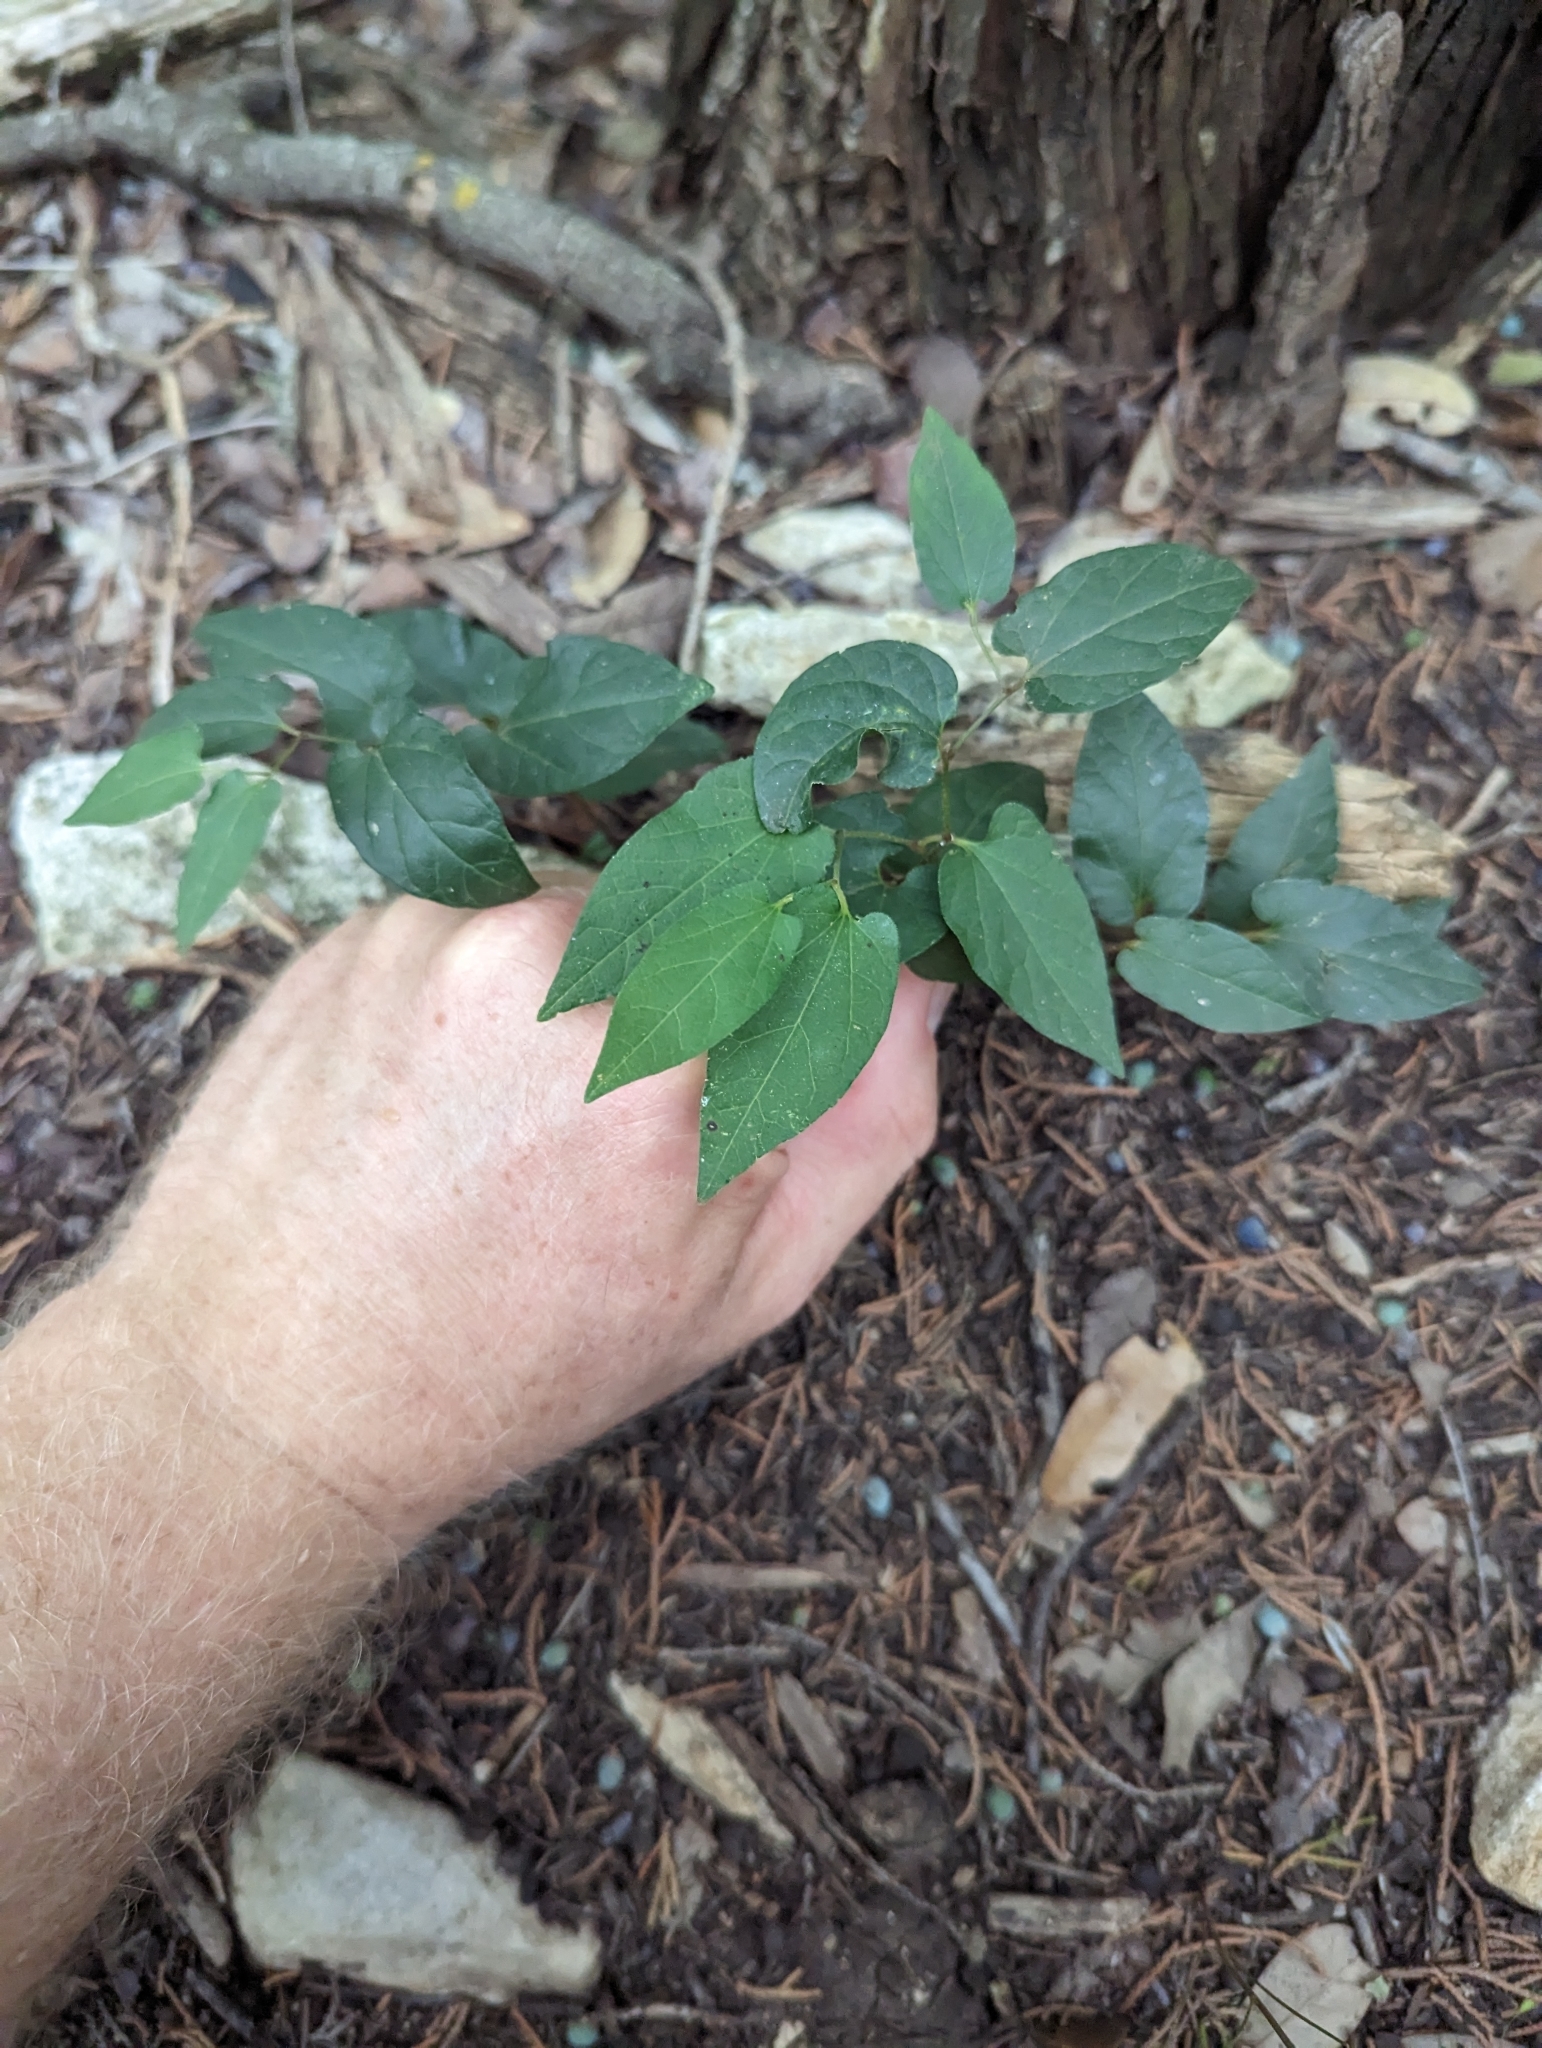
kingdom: Plantae
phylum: Tracheophyta
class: Magnoliopsida
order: Piperales
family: Aristolochiaceae
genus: Endodeca
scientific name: Endodeca serpentaria
